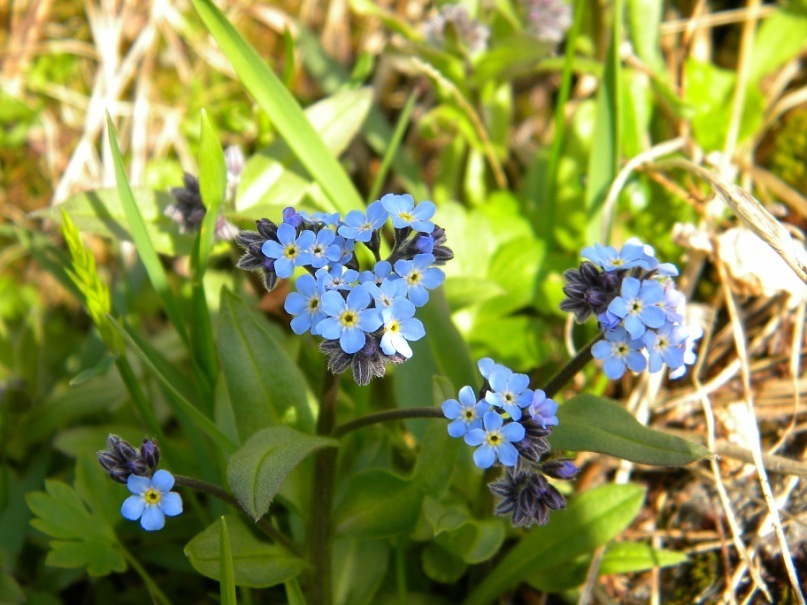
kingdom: Plantae
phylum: Tracheophyta
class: Magnoliopsida
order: Boraginales
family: Boraginaceae
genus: Myosotis
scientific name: Myosotis decumbens
